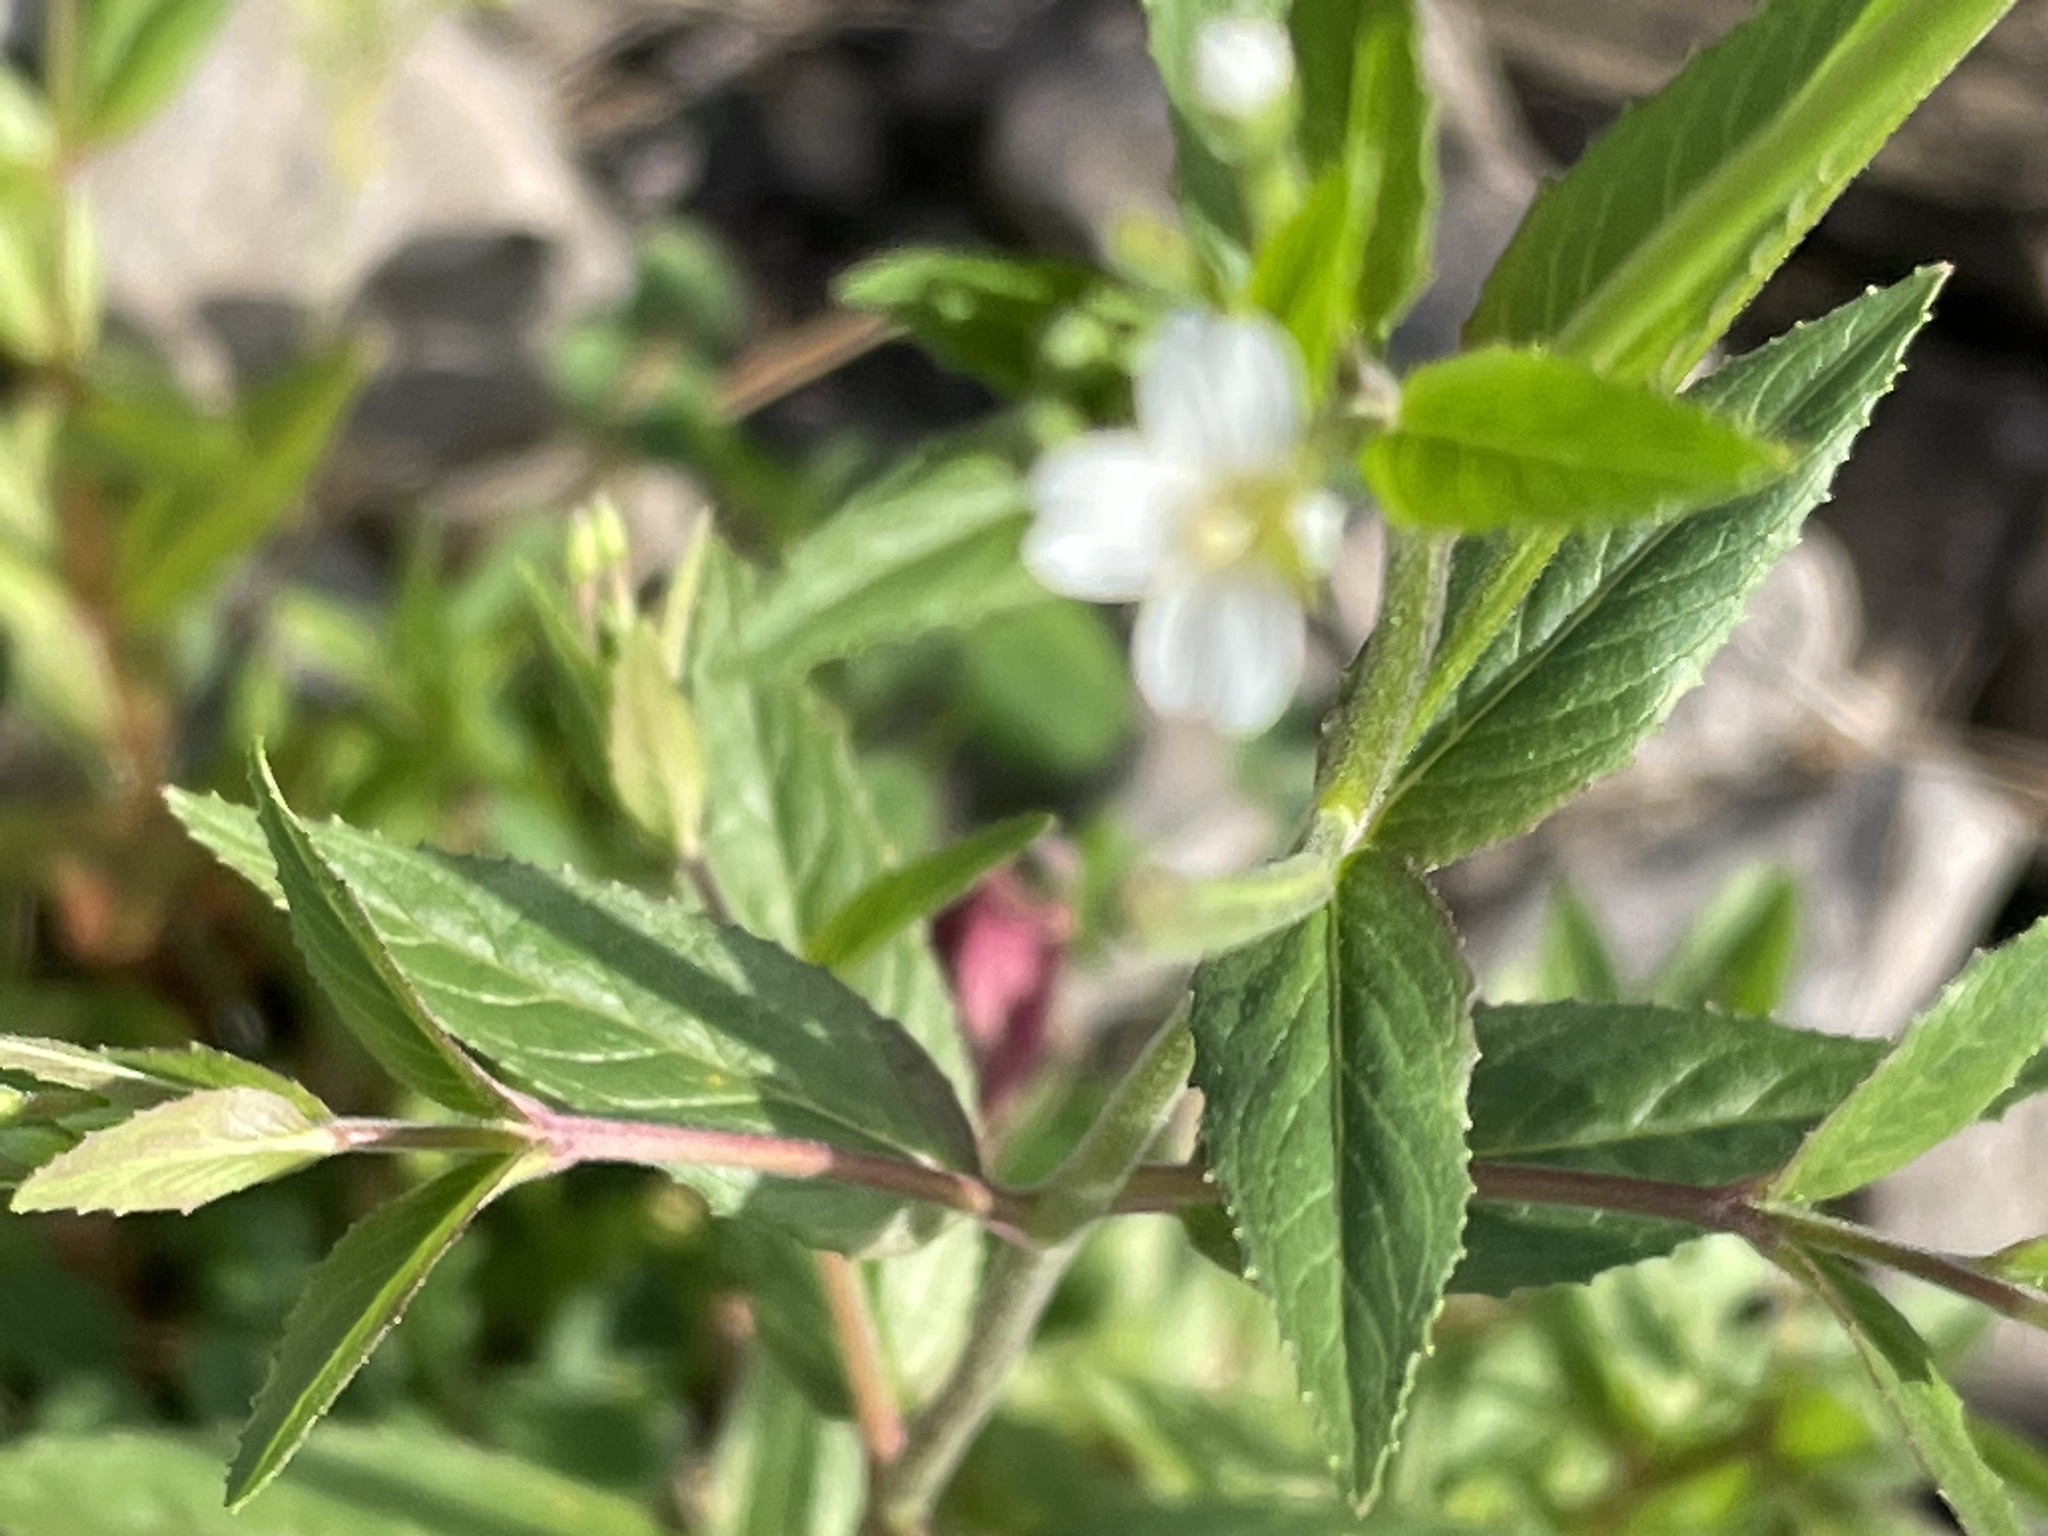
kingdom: Plantae
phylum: Tracheophyta
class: Magnoliopsida
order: Myrtales
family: Onagraceae
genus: Epilobium
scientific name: Epilobium pseudorubescens
